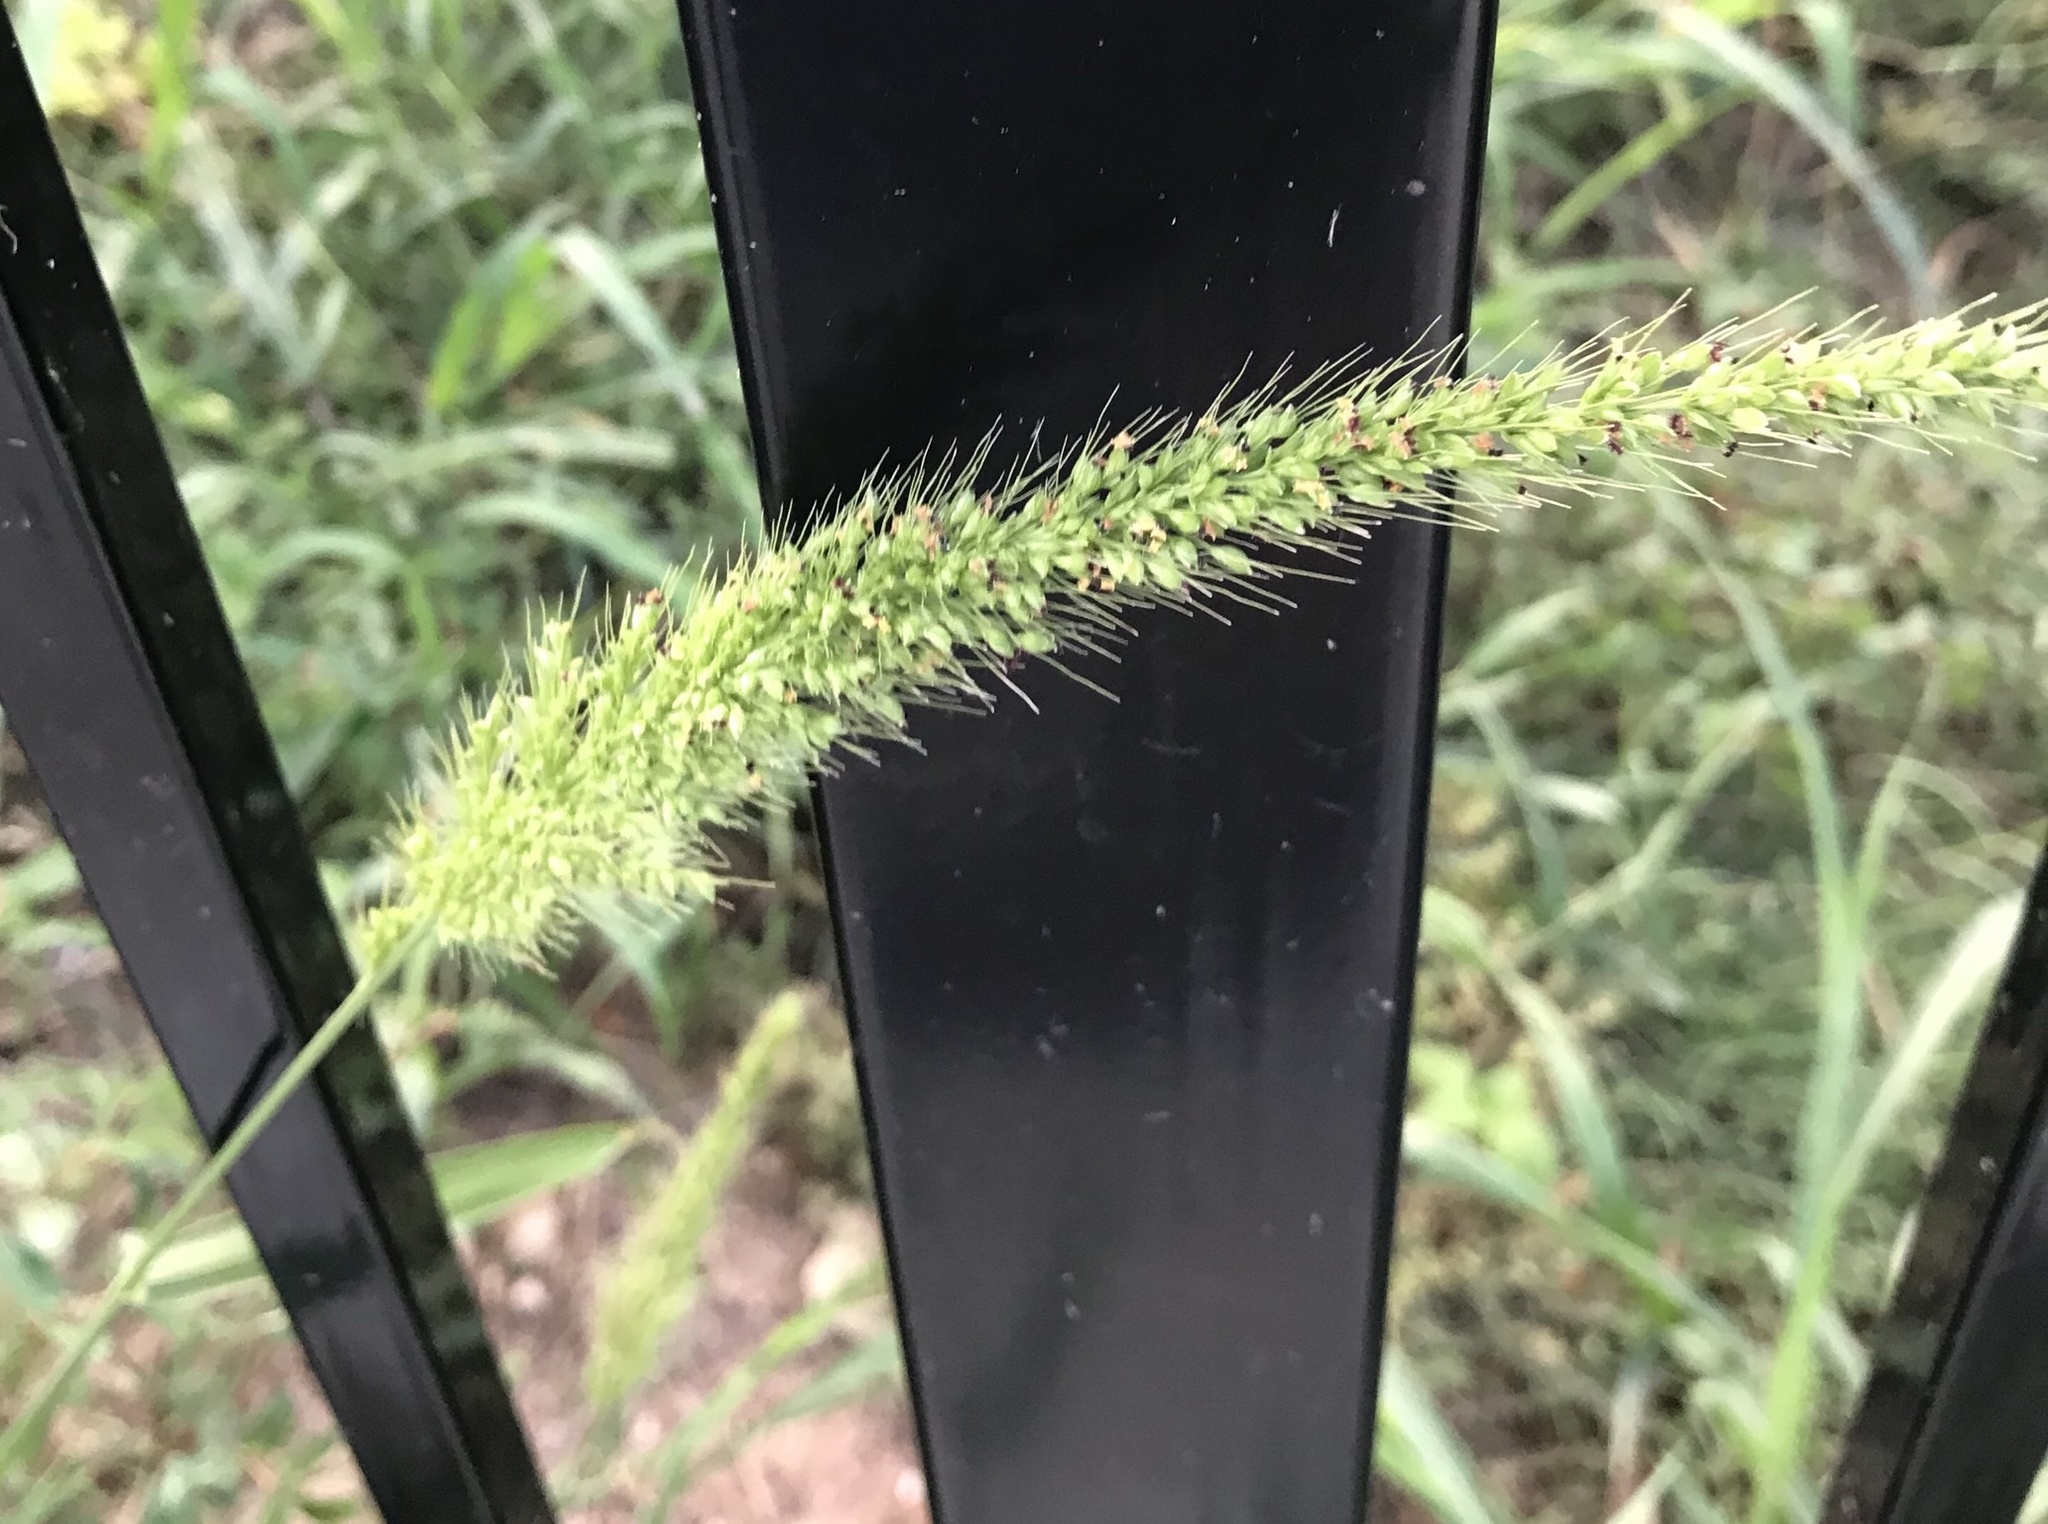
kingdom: Plantae
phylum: Tracheophyta
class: Liliopsida
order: Poales
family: Poaceae
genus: Setaria
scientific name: Setaria scheelei
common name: Southwestern bristle grass
